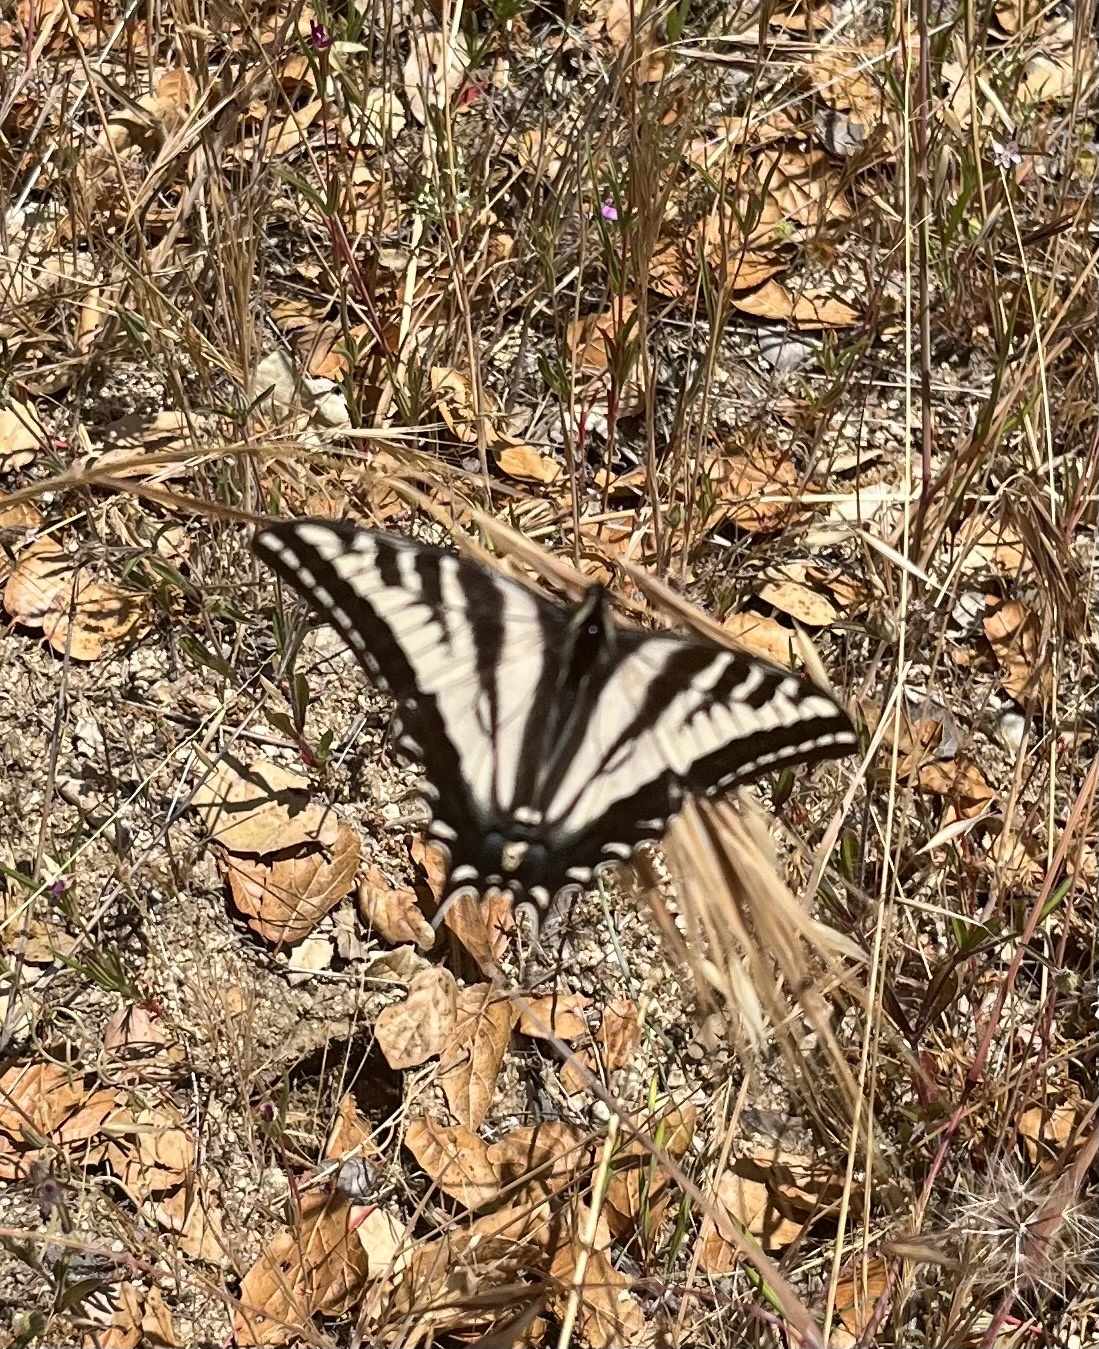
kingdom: Animalia
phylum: Arthropoda
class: Insecta
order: Lepidoptera
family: Papilionidae
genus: Papilio
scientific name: Papilio eurymedon
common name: Pale tiger swallowtail
